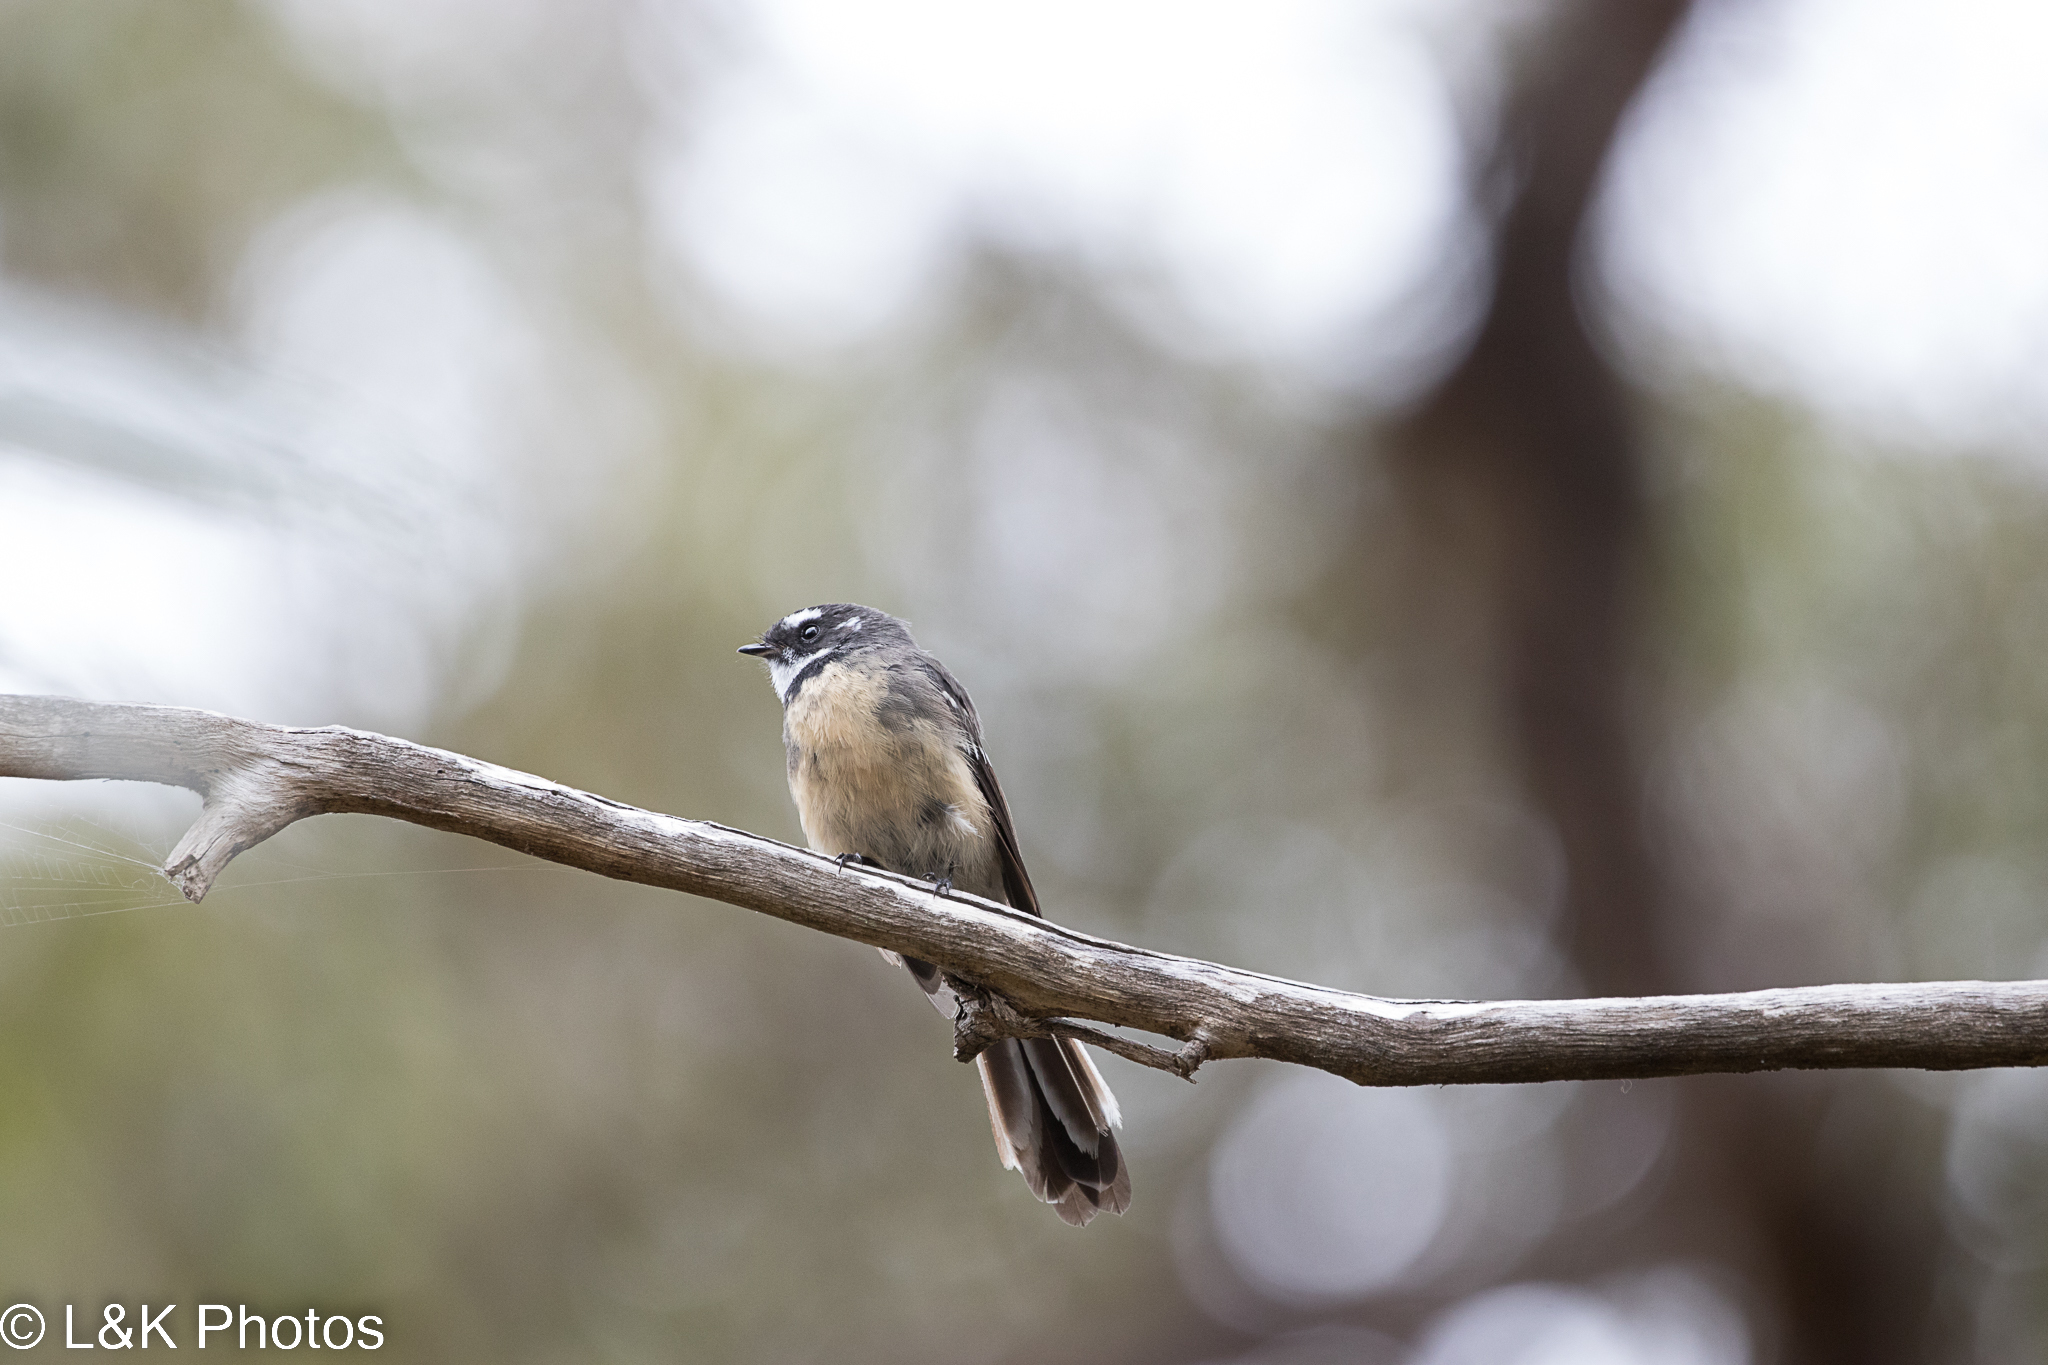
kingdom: Animalia
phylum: Chordata
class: Aves
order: Passeriformes
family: Rhipiduridae
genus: Rhipidura
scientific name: Rhipidura albiscapa
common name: Grey fantail
